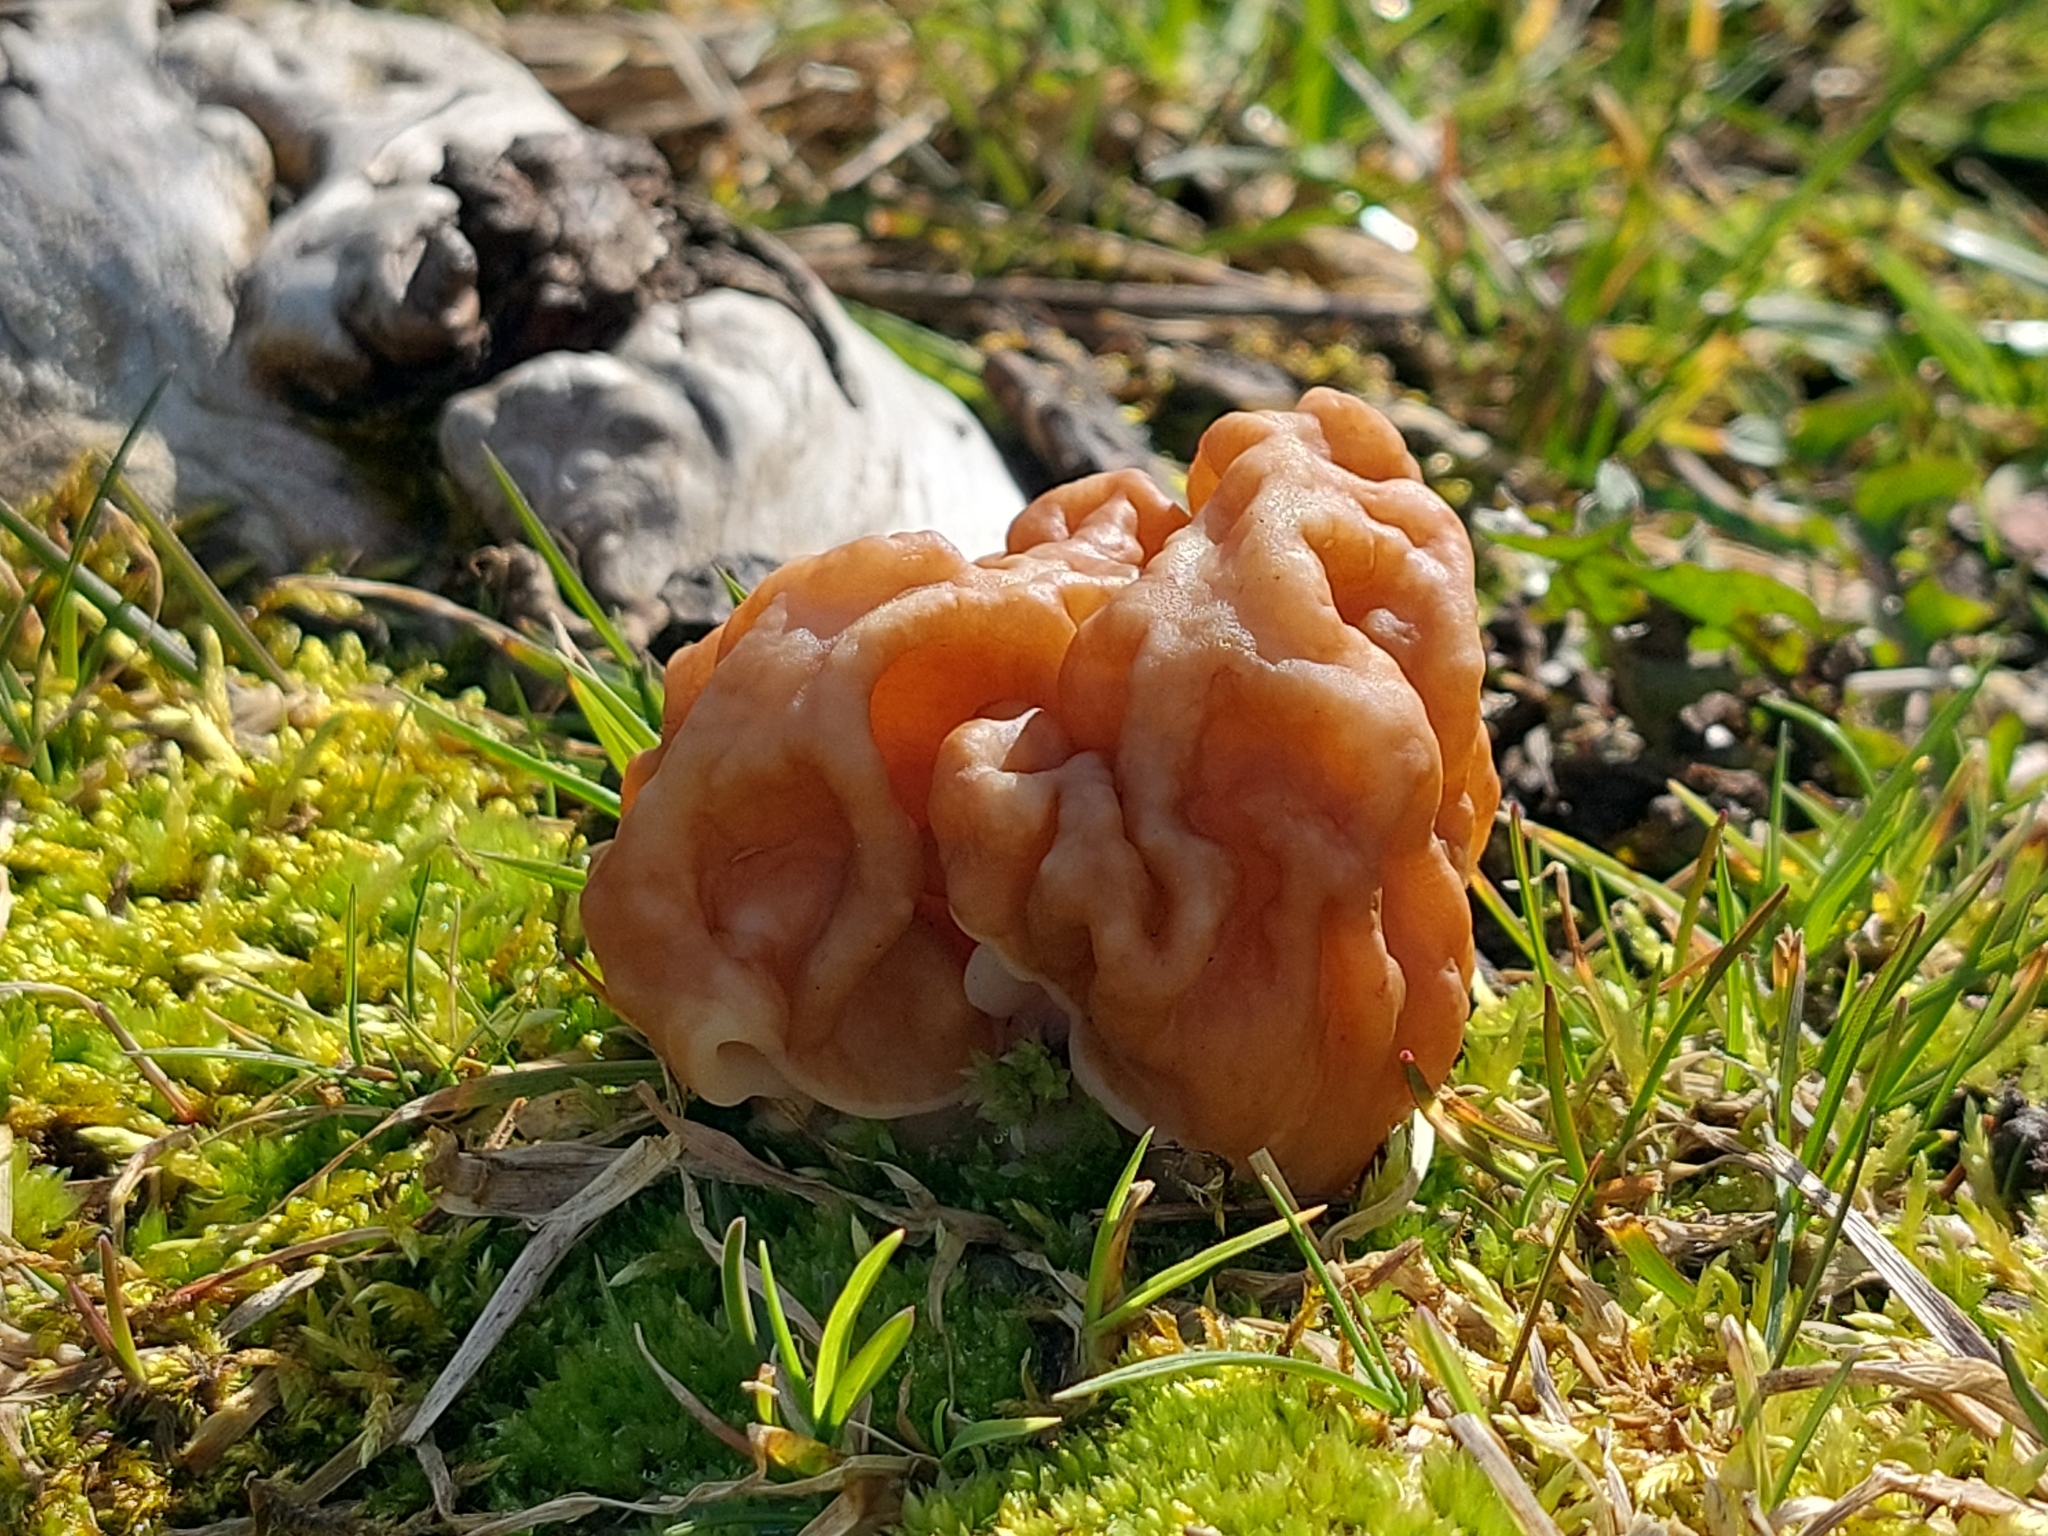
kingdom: Fungi
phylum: Ascomycota
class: Pezizomycetes
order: Pezizales
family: Discinaceae
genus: Gyromitra
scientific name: Gyromitra gigas
